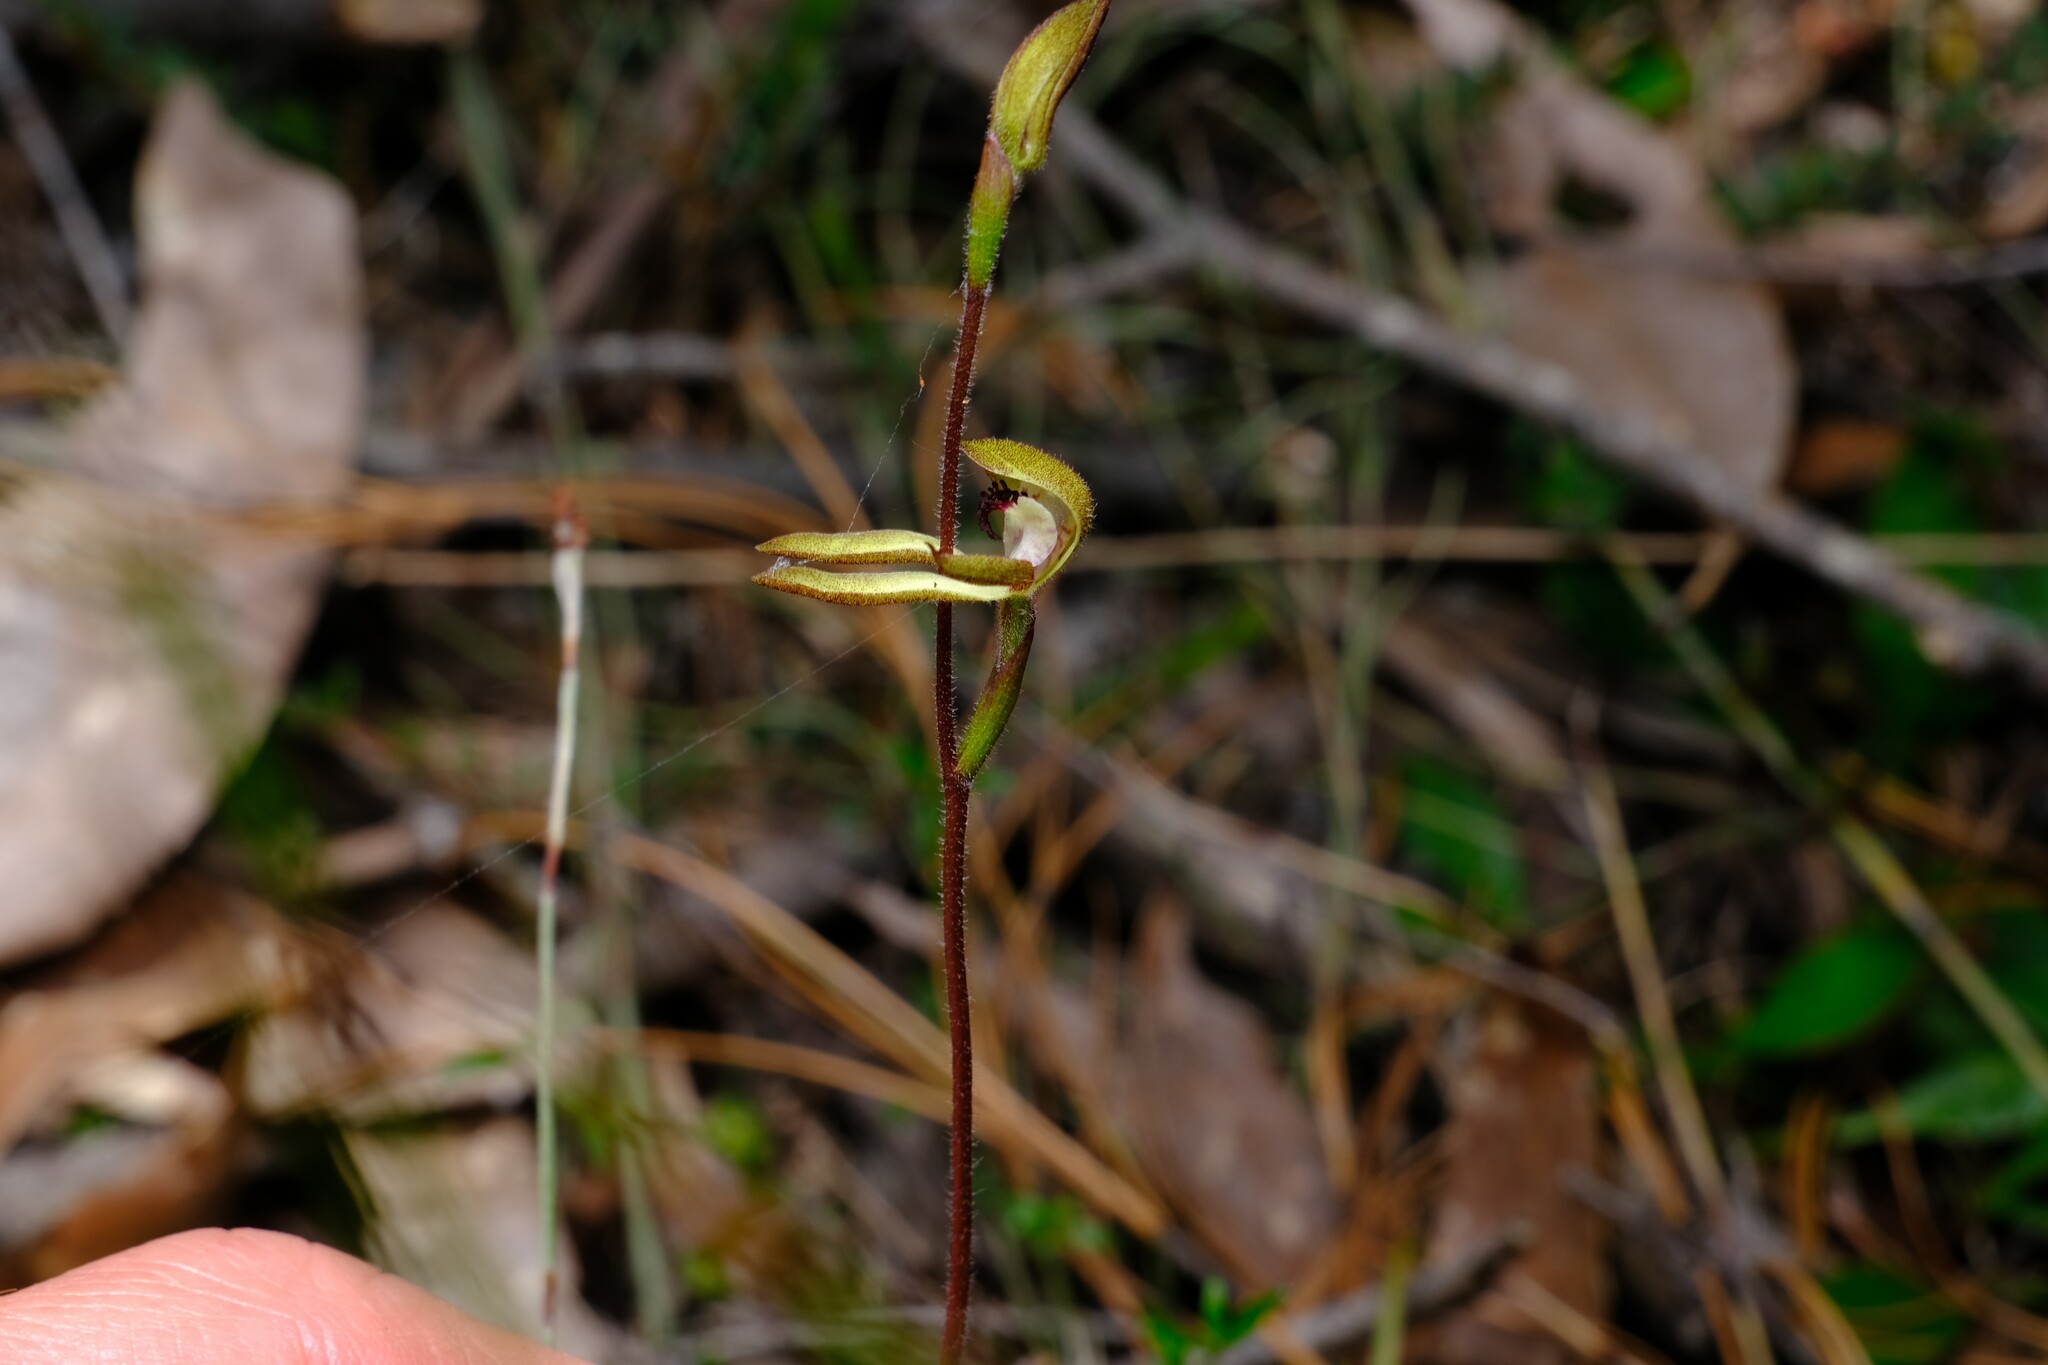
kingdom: Plantae
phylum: Tracheophyta
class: Liliopsida
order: Asparagales
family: Orchidaceae
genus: Caladenia
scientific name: Caladenia transitoria
